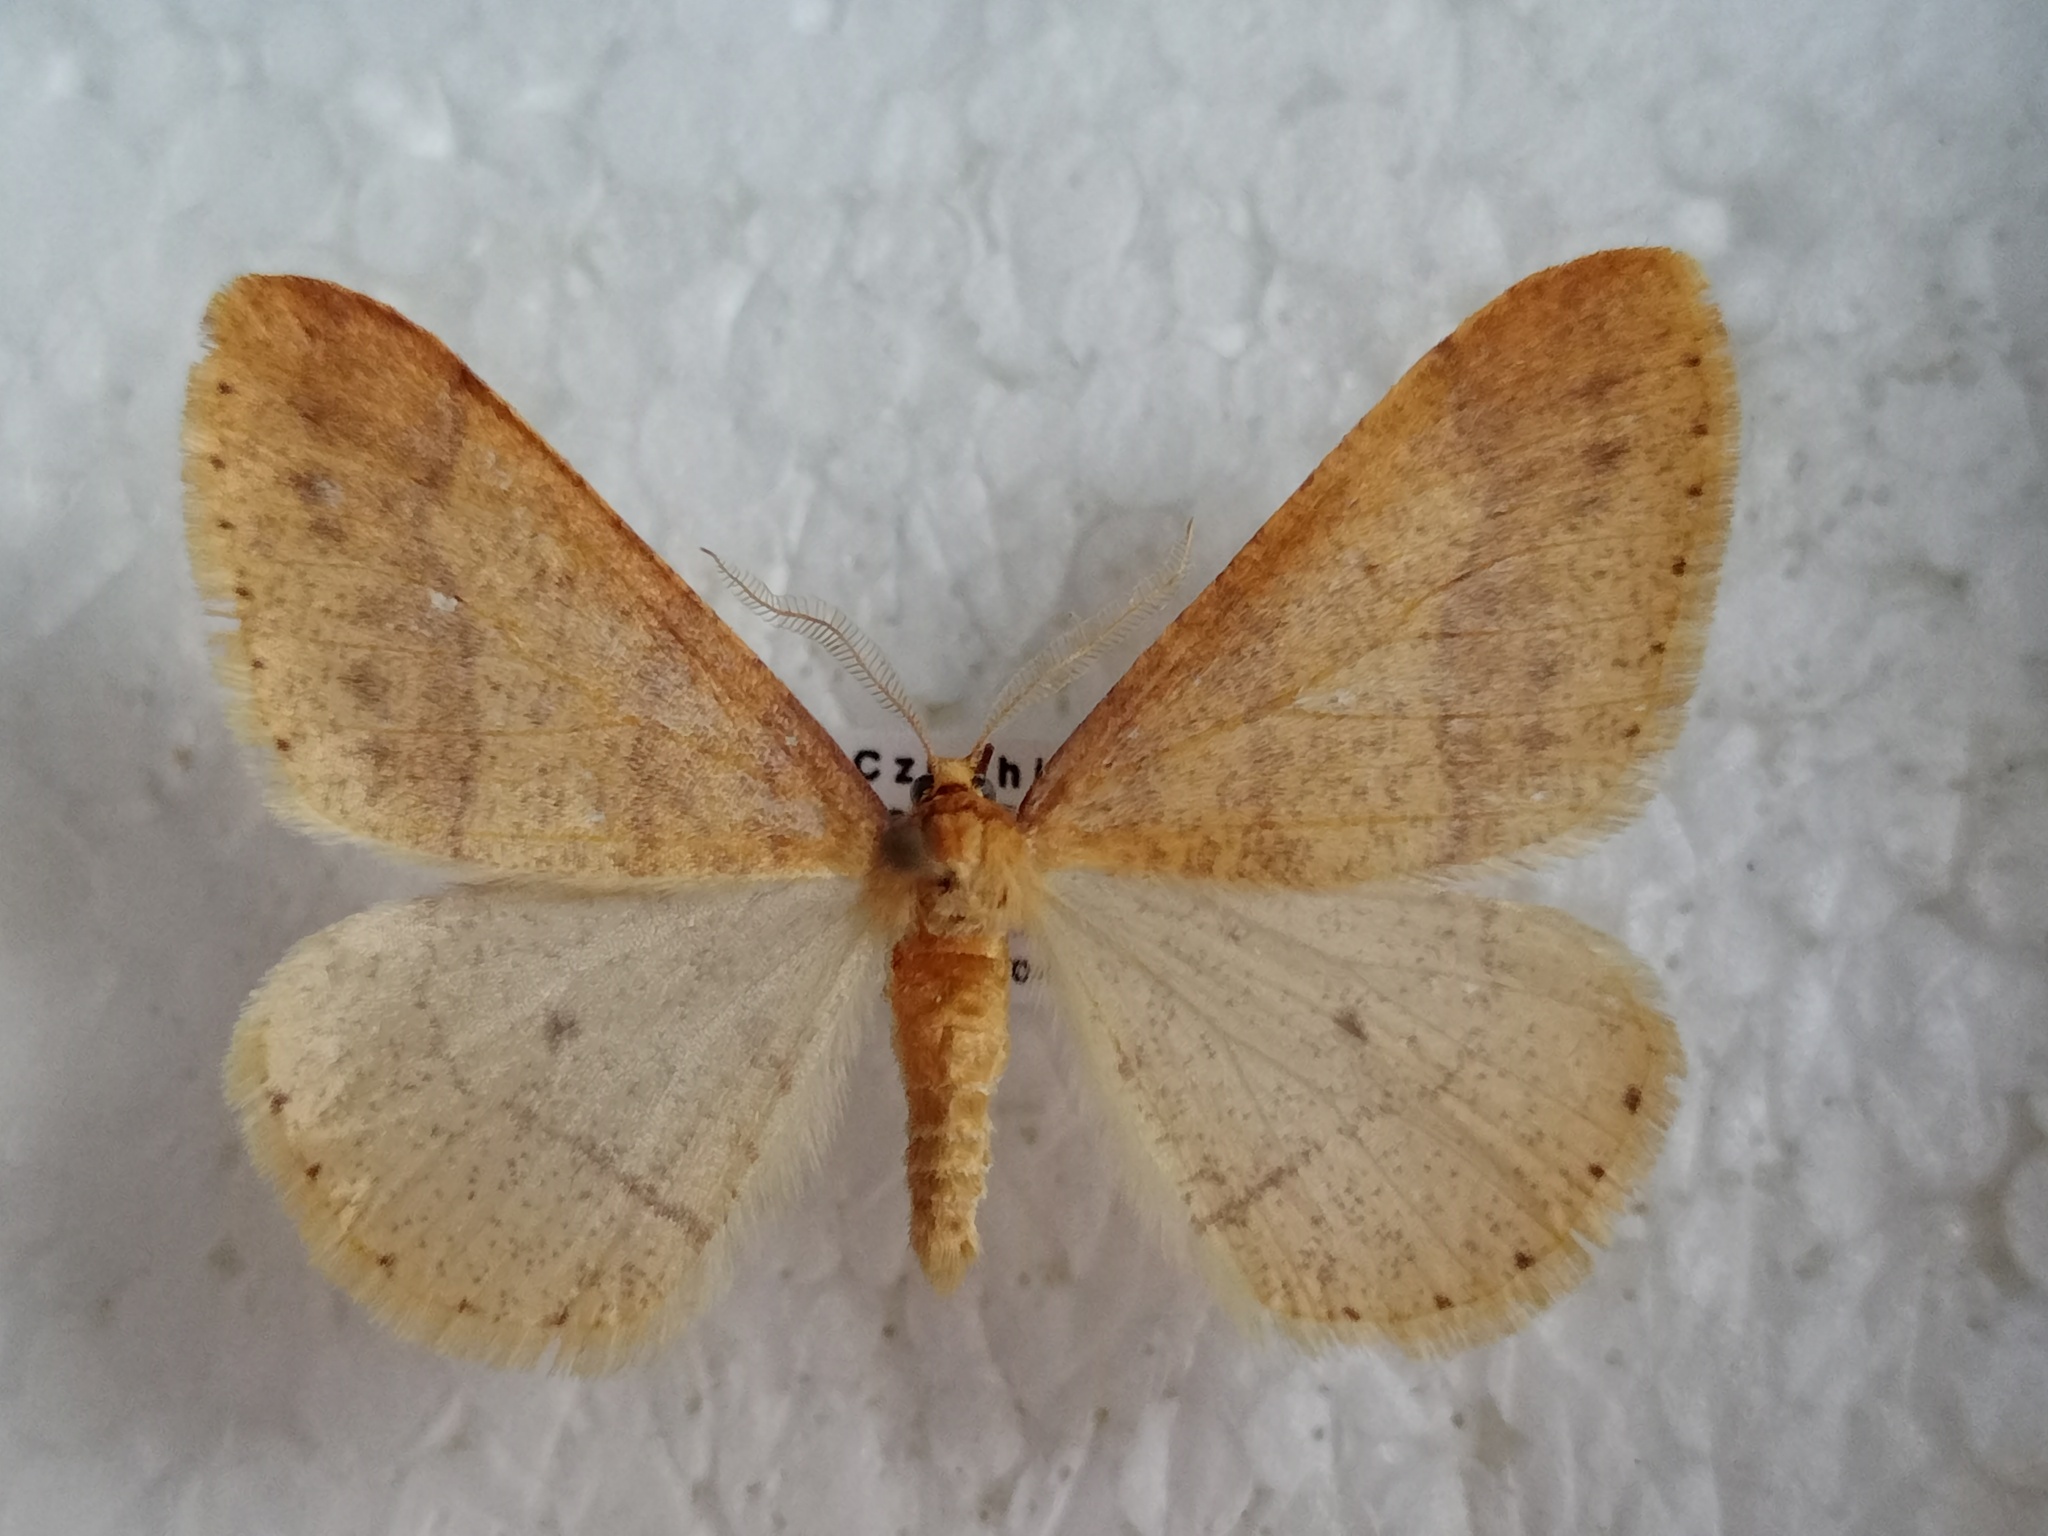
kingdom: Animalia
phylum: Arthropoda
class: Insecta
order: Lepidoptera
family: Geometridae
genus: Agriopis
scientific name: Agriopis aurantiaria
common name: Scarce umber
